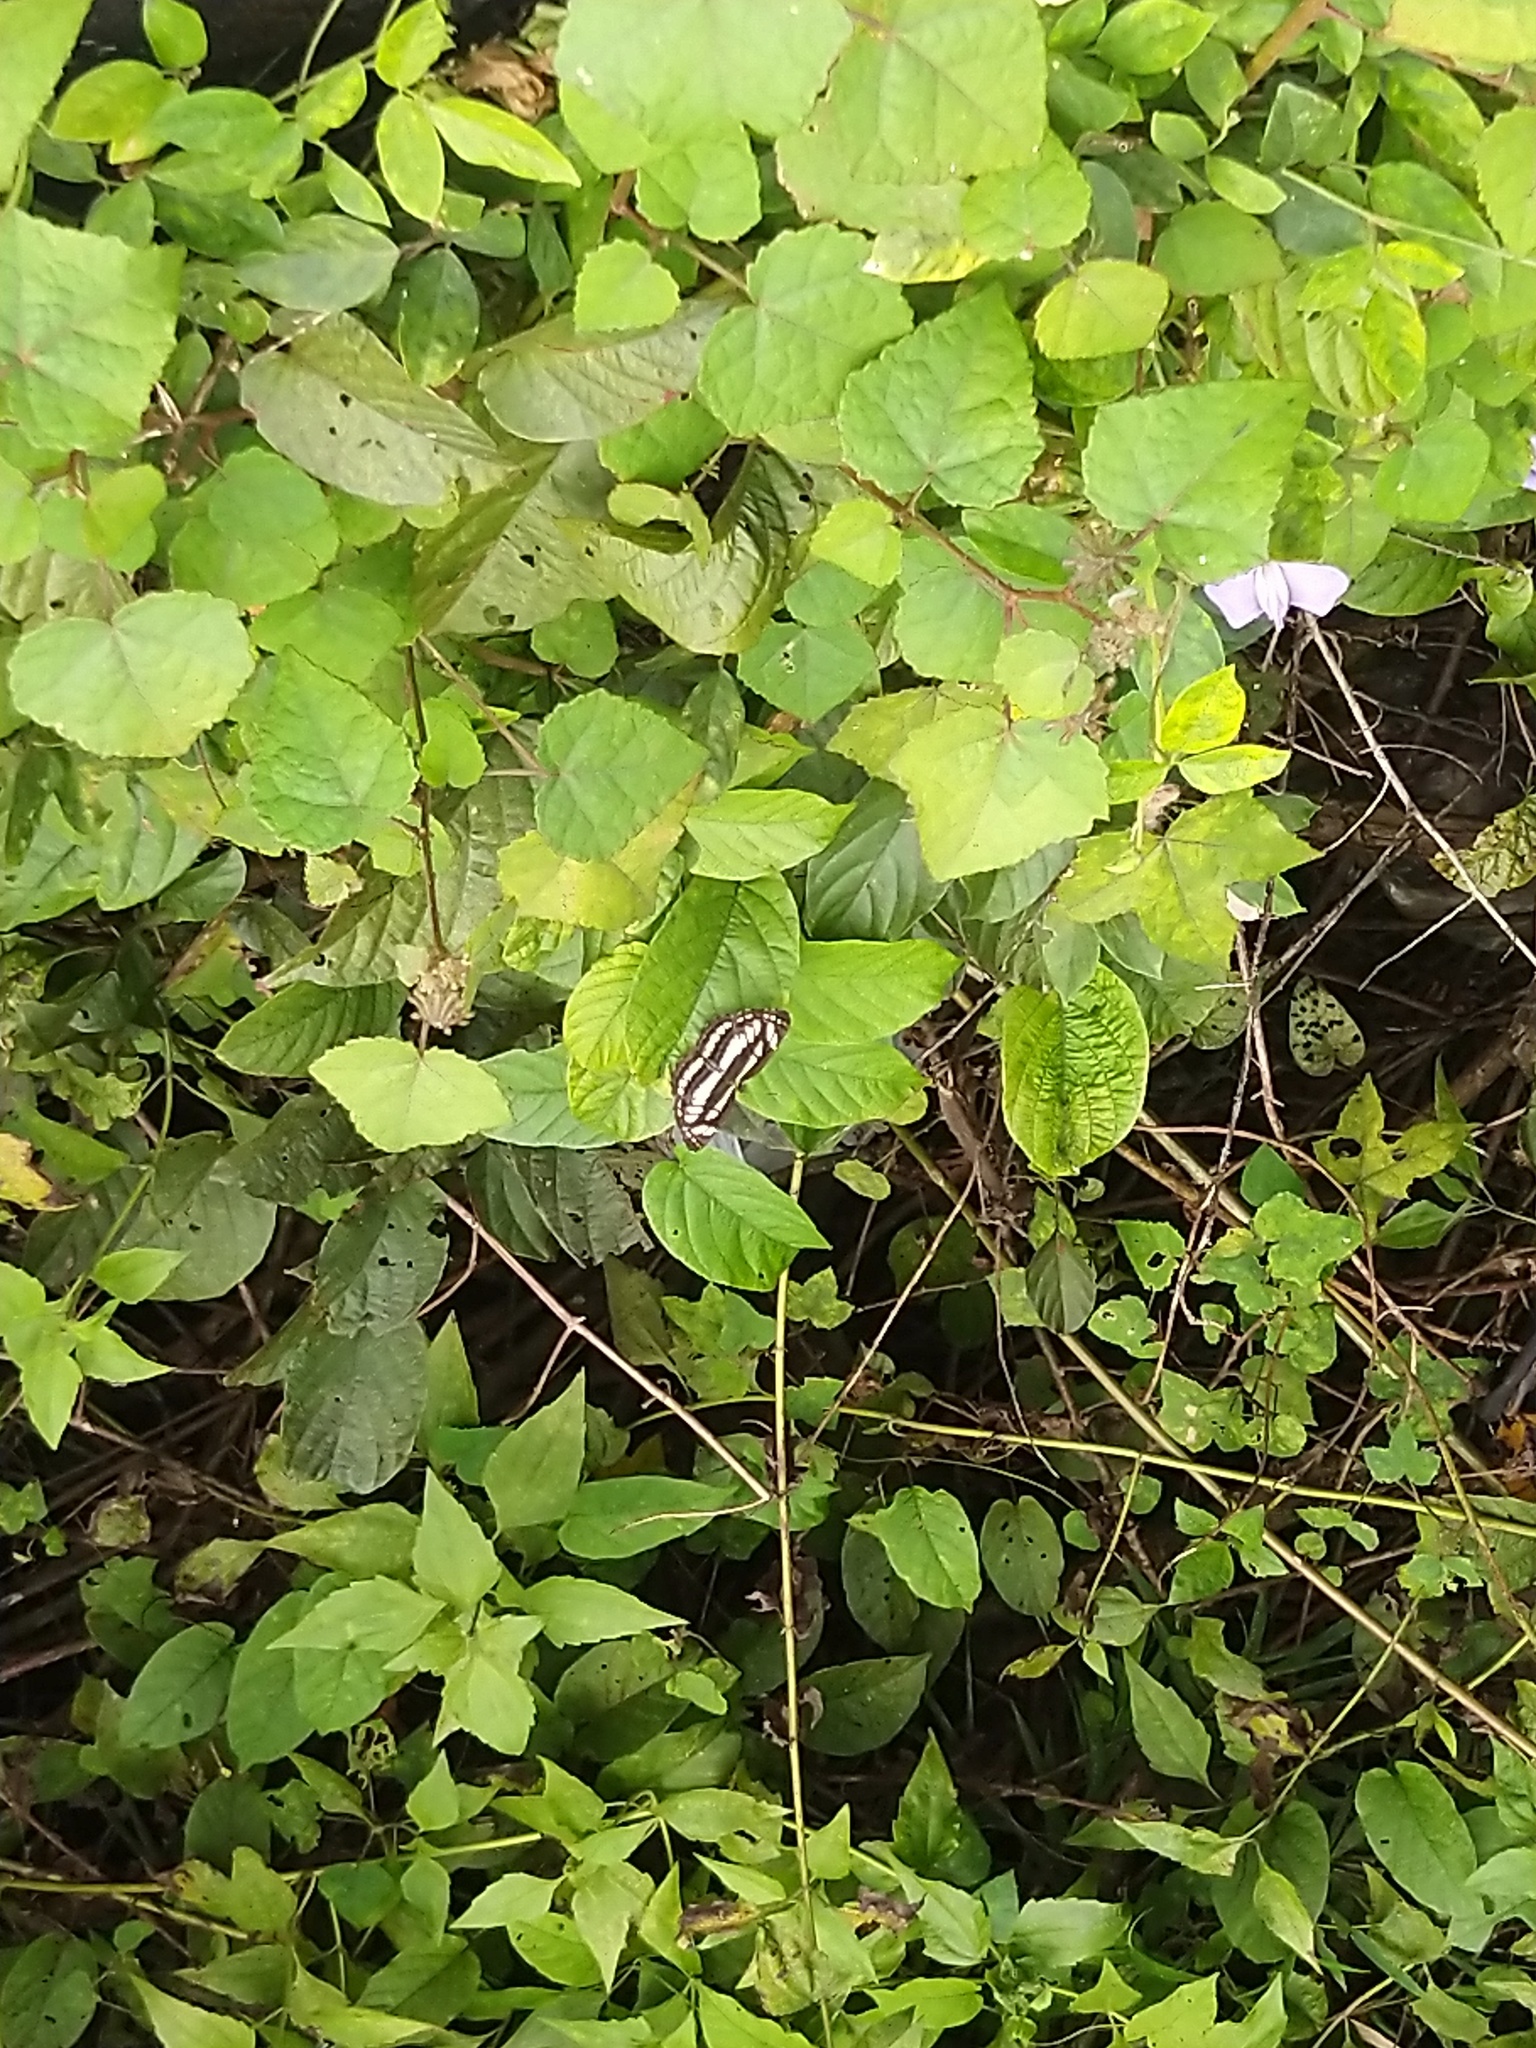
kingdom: Animalia
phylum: Arthropoda
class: Insecta
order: Lepidoptera
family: Nymphalidae
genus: Neptis
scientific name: Neptis hylas
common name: Common sailer
